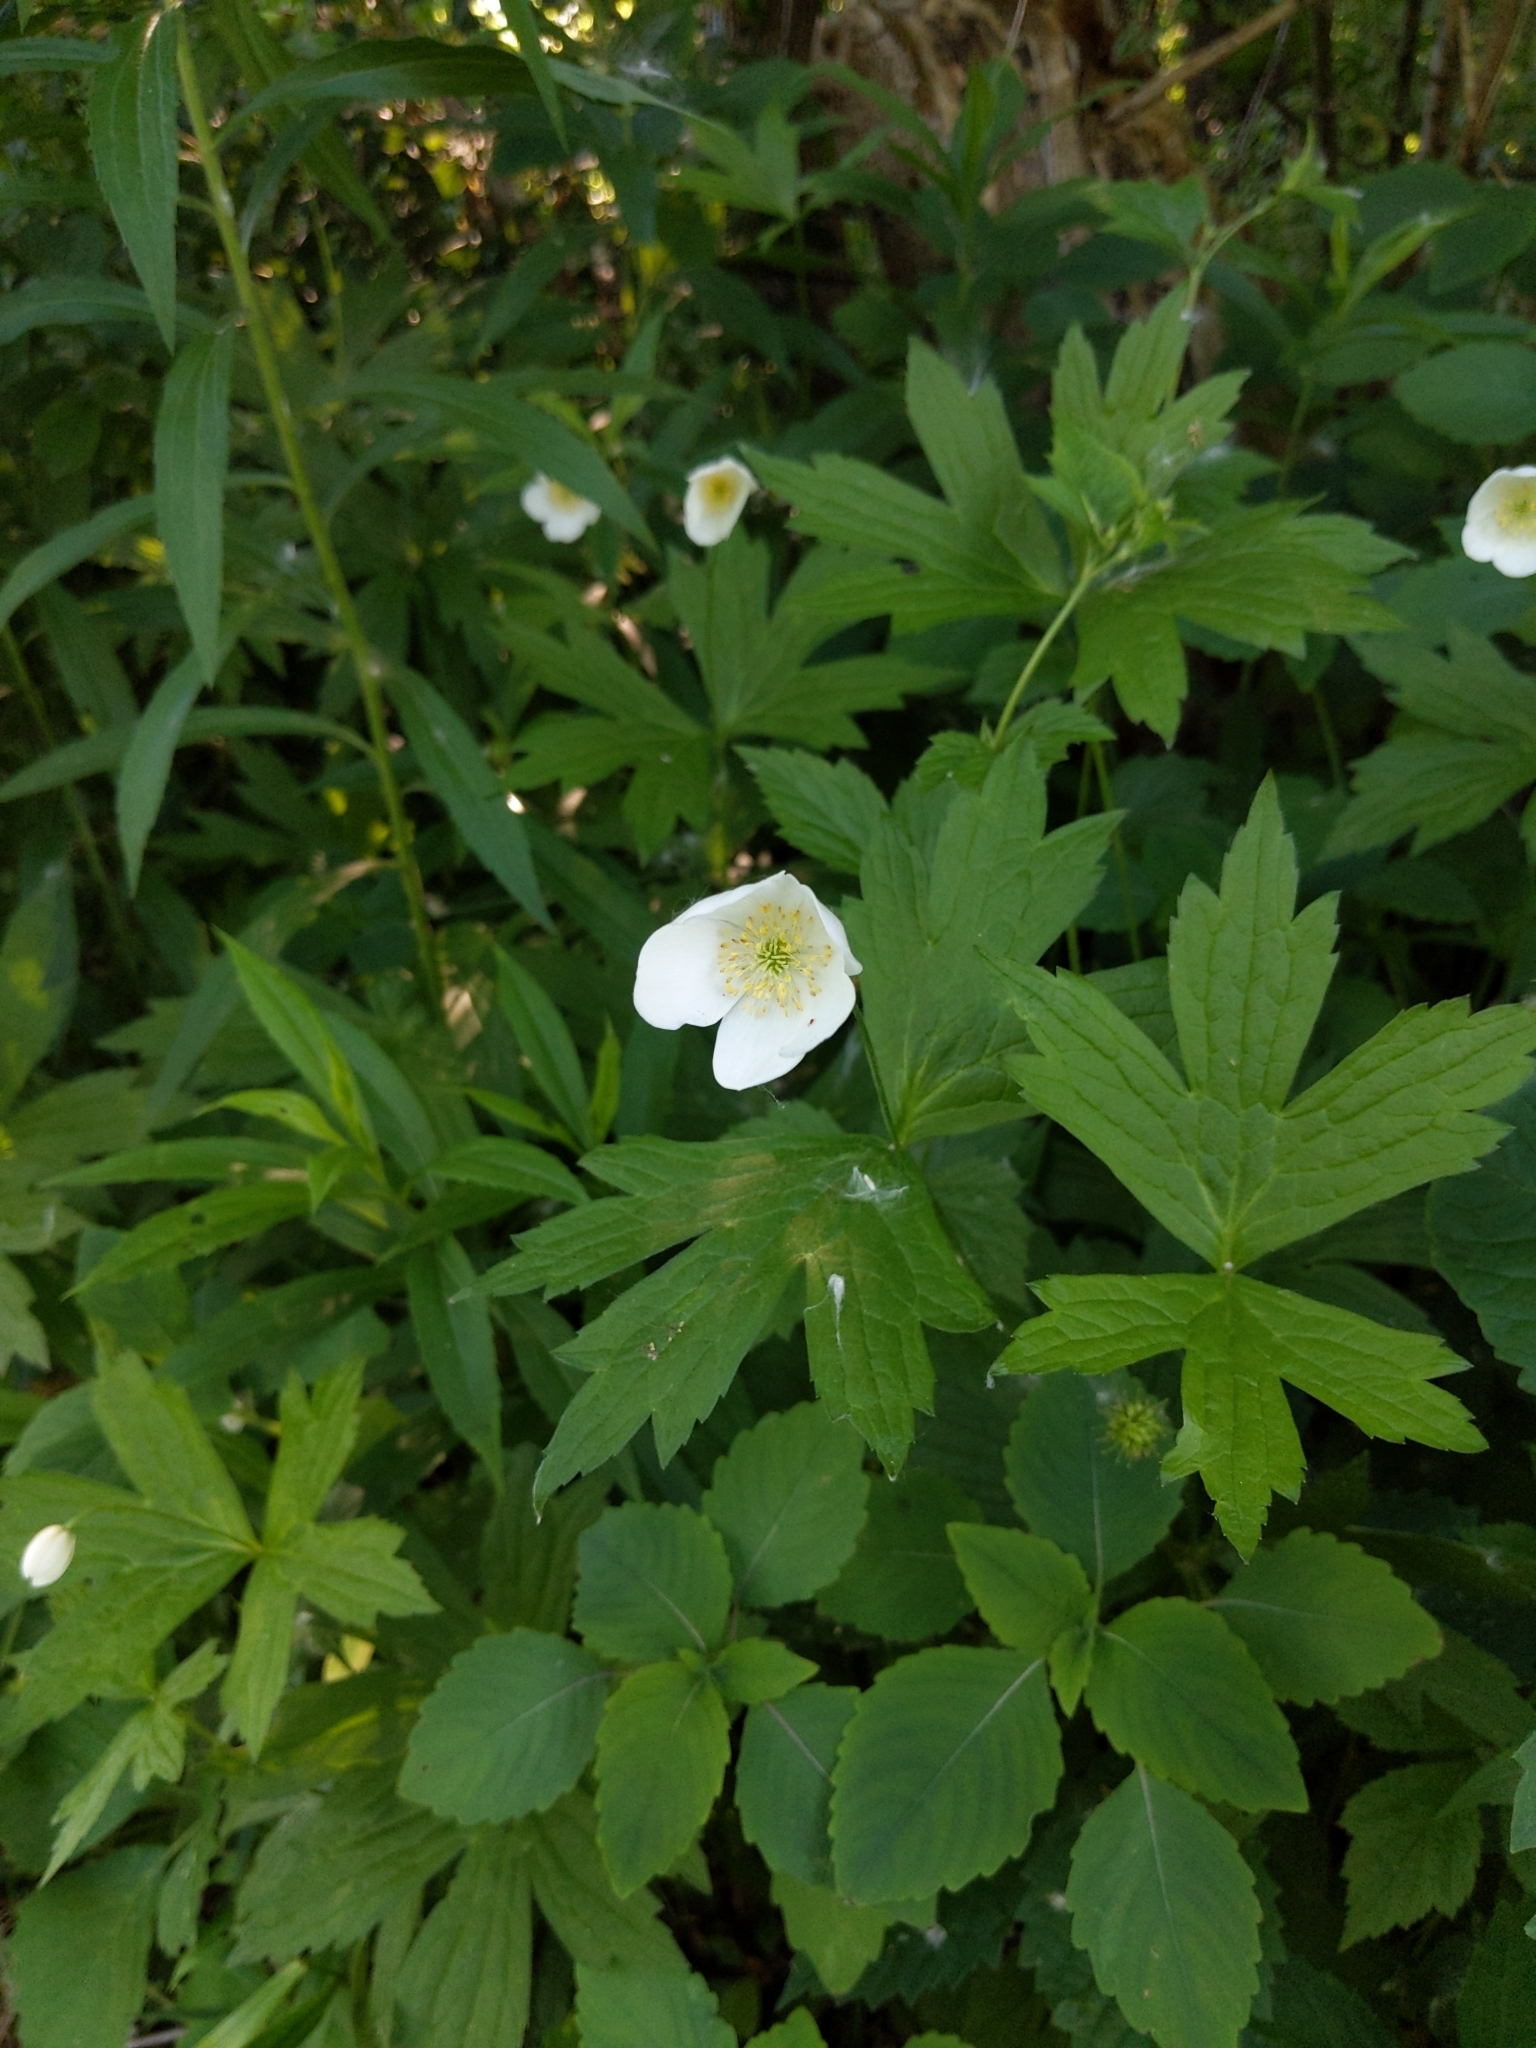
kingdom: Plantae
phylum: Tracheophyta
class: Magnoliopsida
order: Ranunculales
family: Ranunculaceae
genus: Anemonastrum
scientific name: Anemonastrum canadense
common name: Canada anemone
